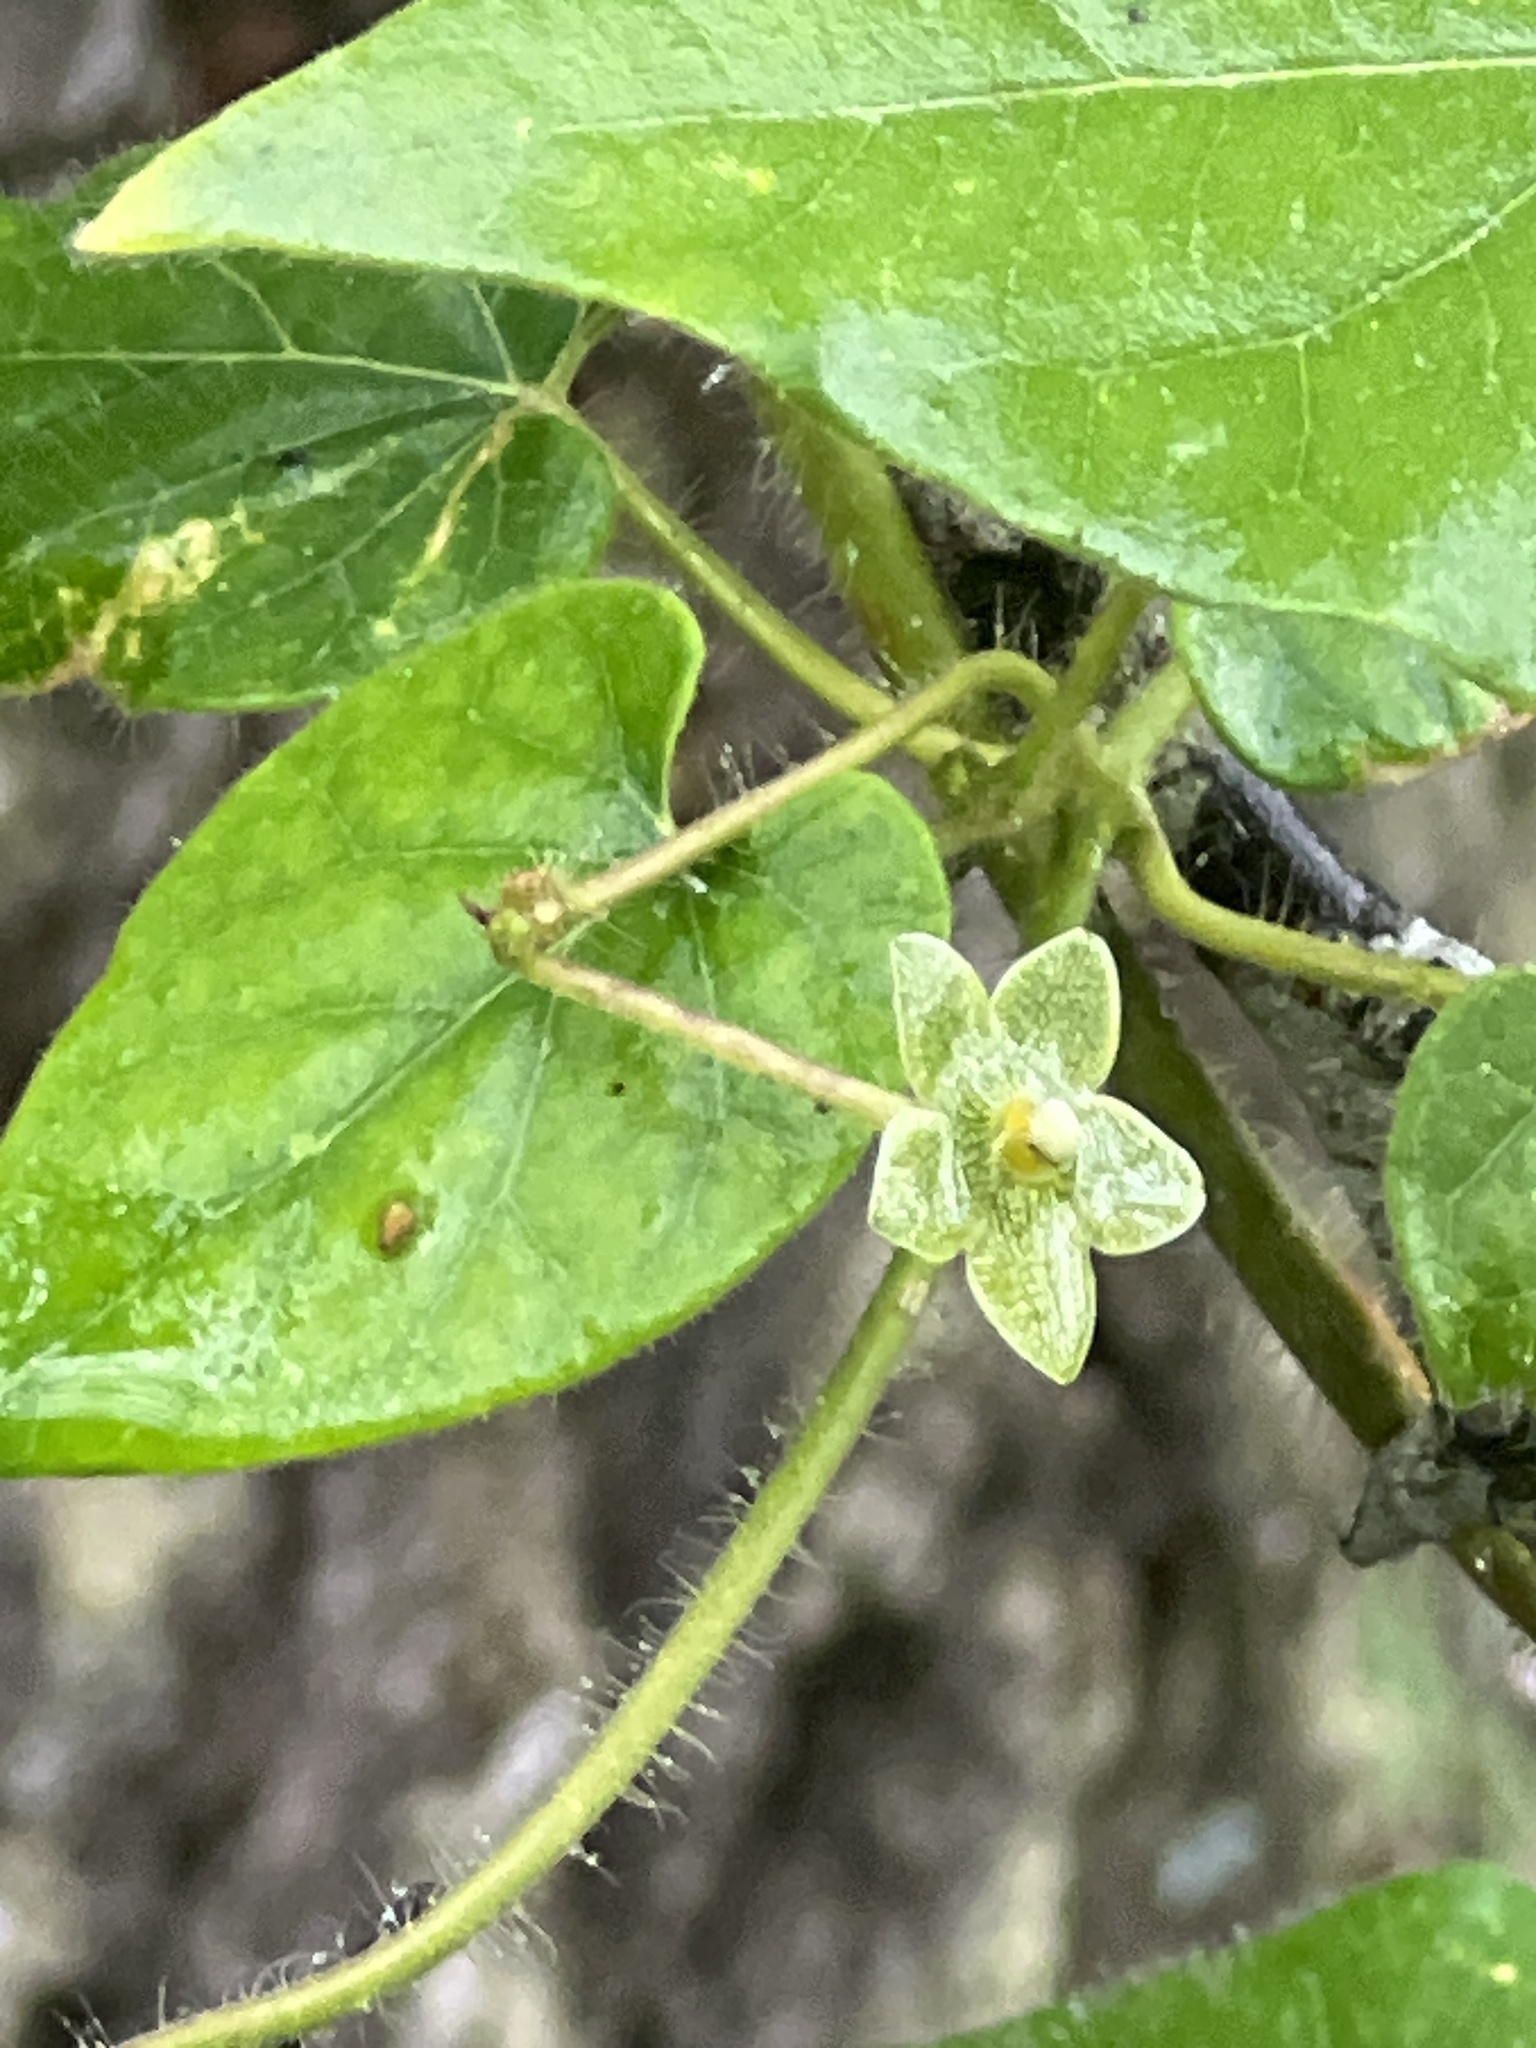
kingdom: Plantae
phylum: Tracheophyta
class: Magnoliopsida
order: Gentianales
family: Apocynaceae
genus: Dictyanthus
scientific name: Dictyanthus reticulatus
